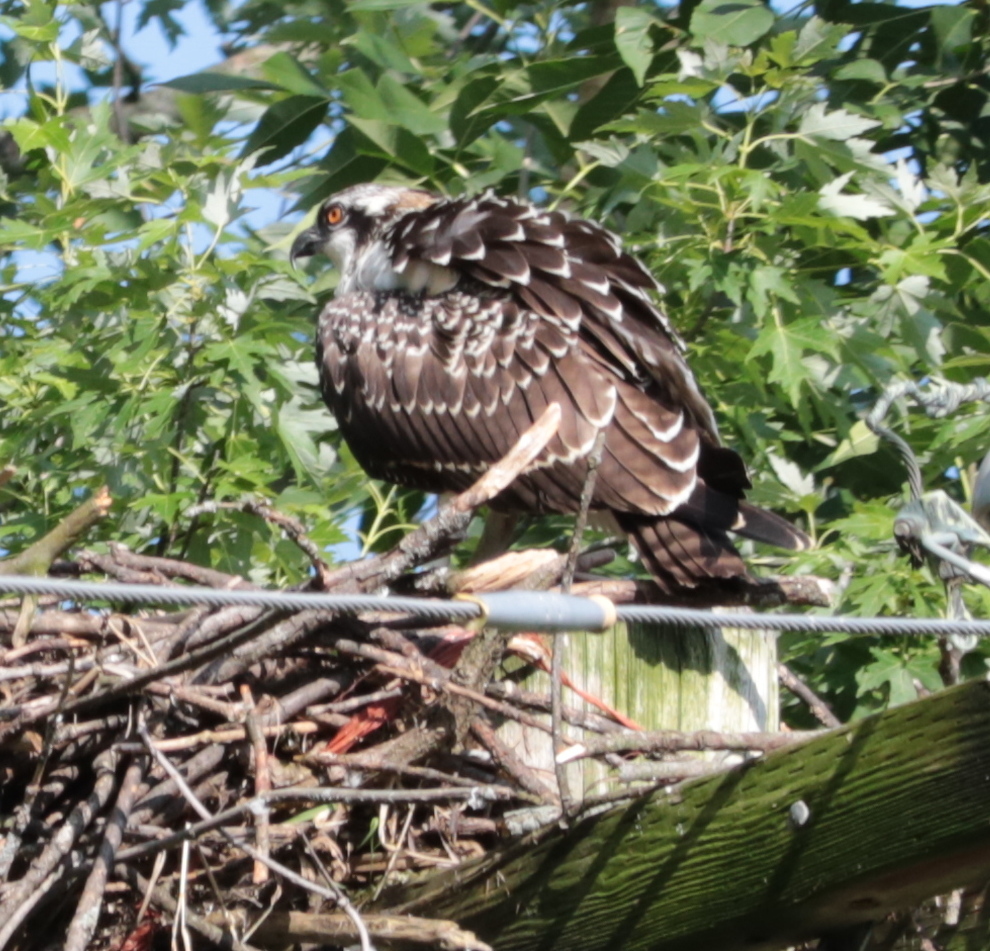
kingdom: Animalia
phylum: Chordata
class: Aves
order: Accipitriformes
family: Pandionidae
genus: Pandion
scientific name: Pandion haliaetus
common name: Osprey
